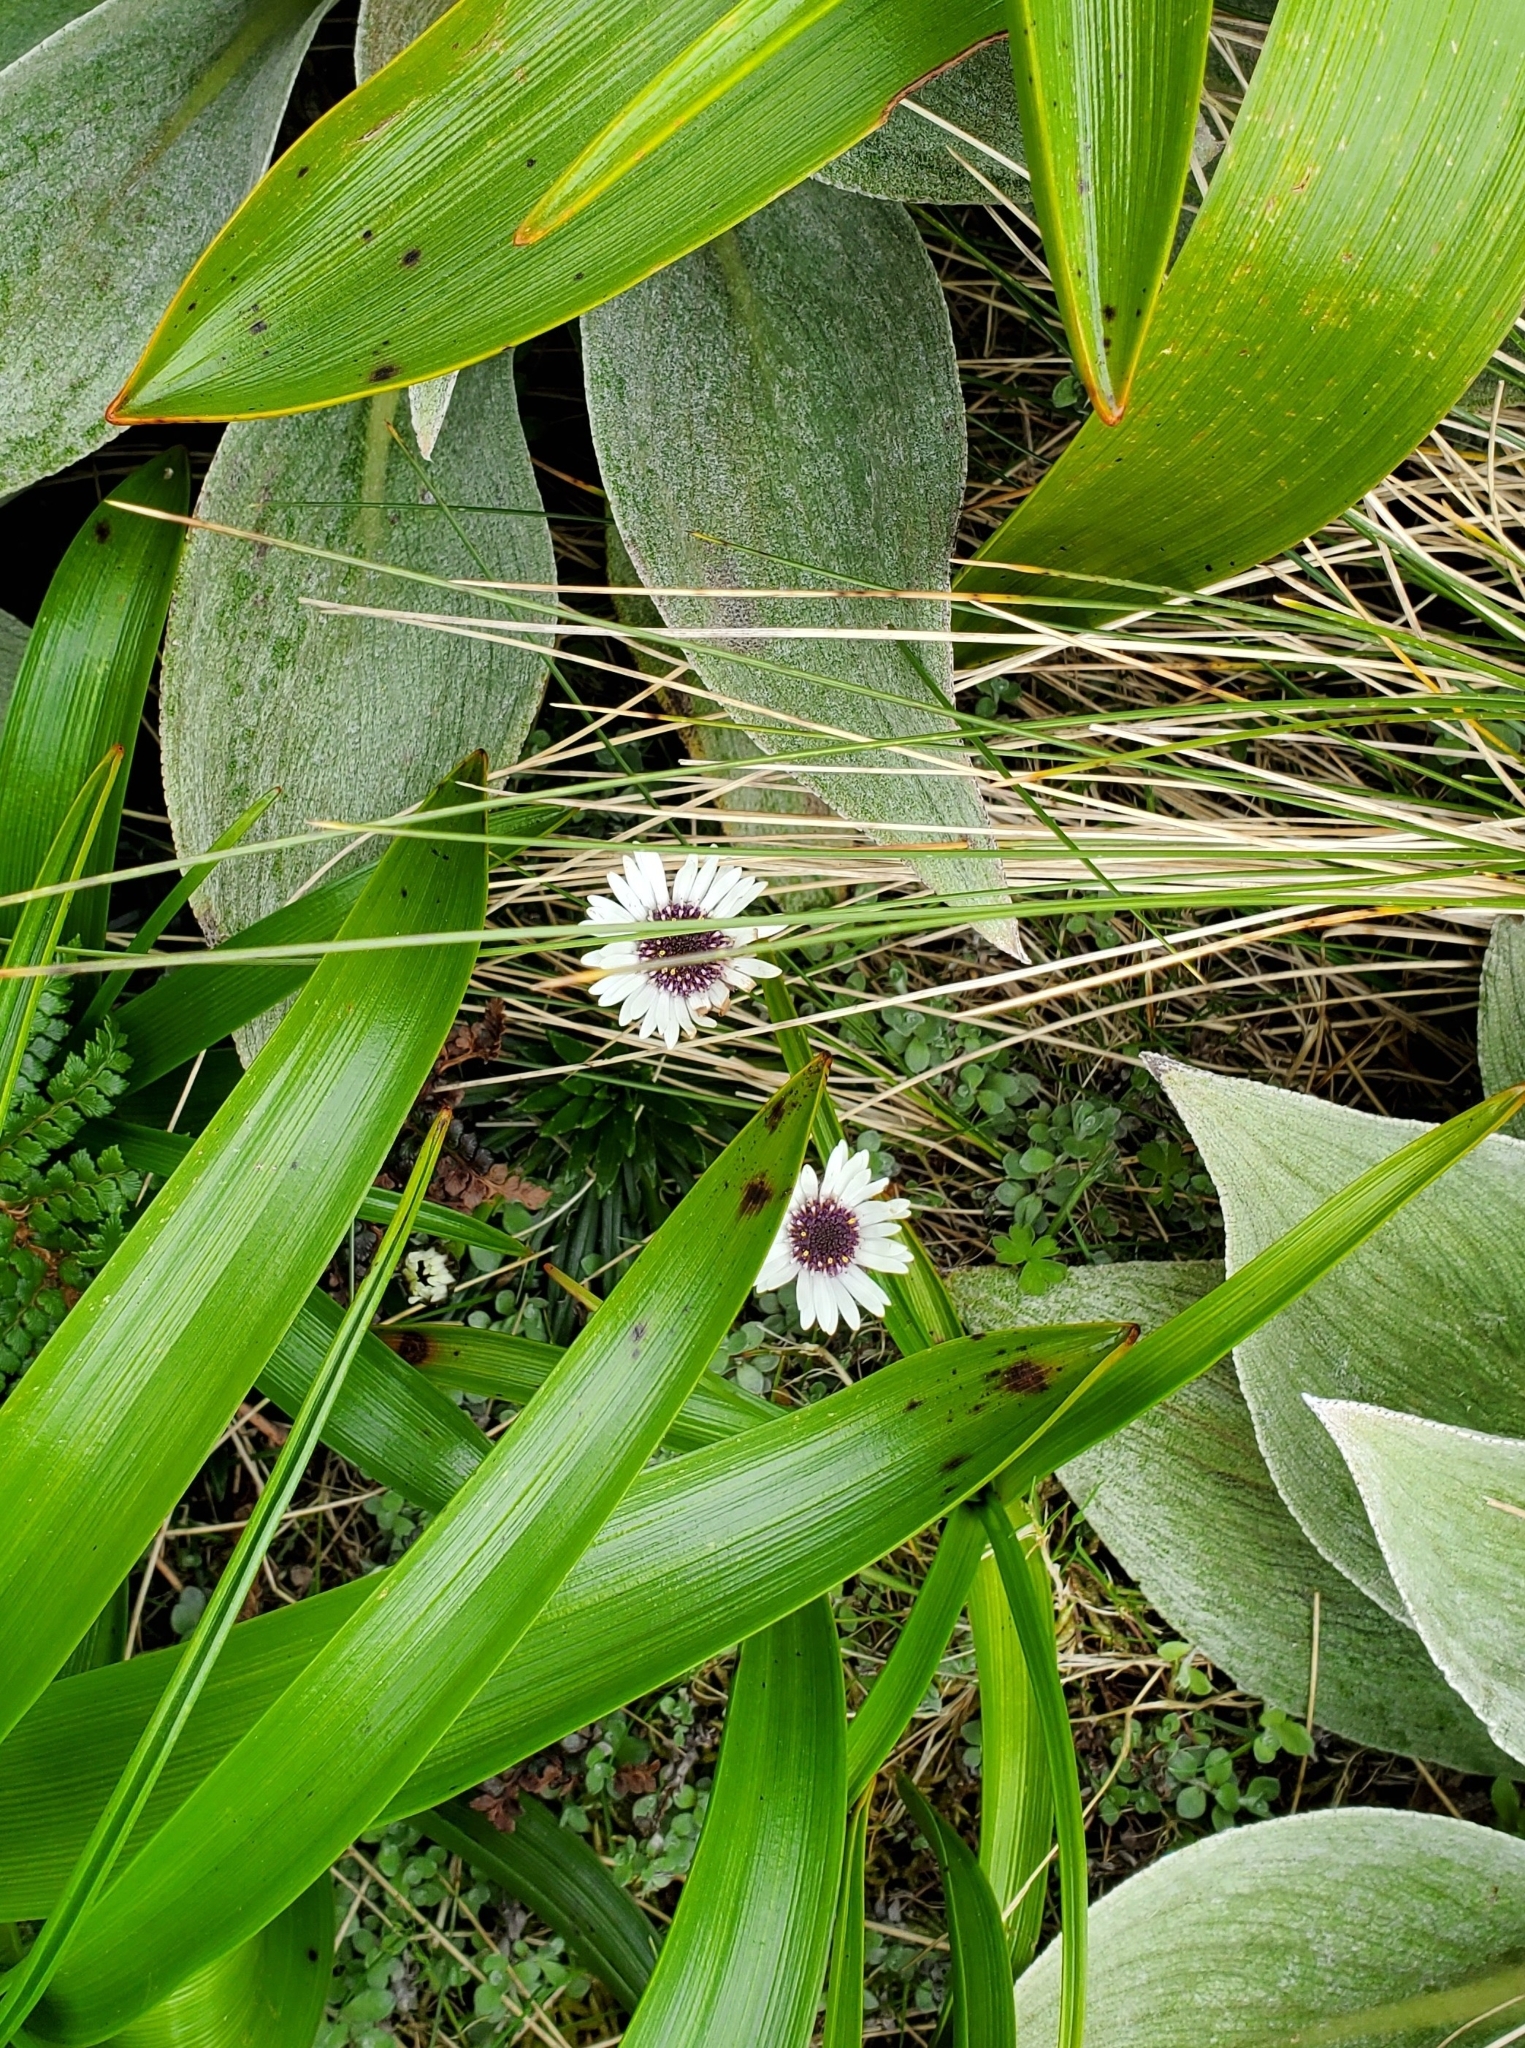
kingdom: Plantae
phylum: Tracheophyta
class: Magnoliopsida
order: Asterales
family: Asteraceae
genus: Damnamenia
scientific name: Damnamenia vernicosa
